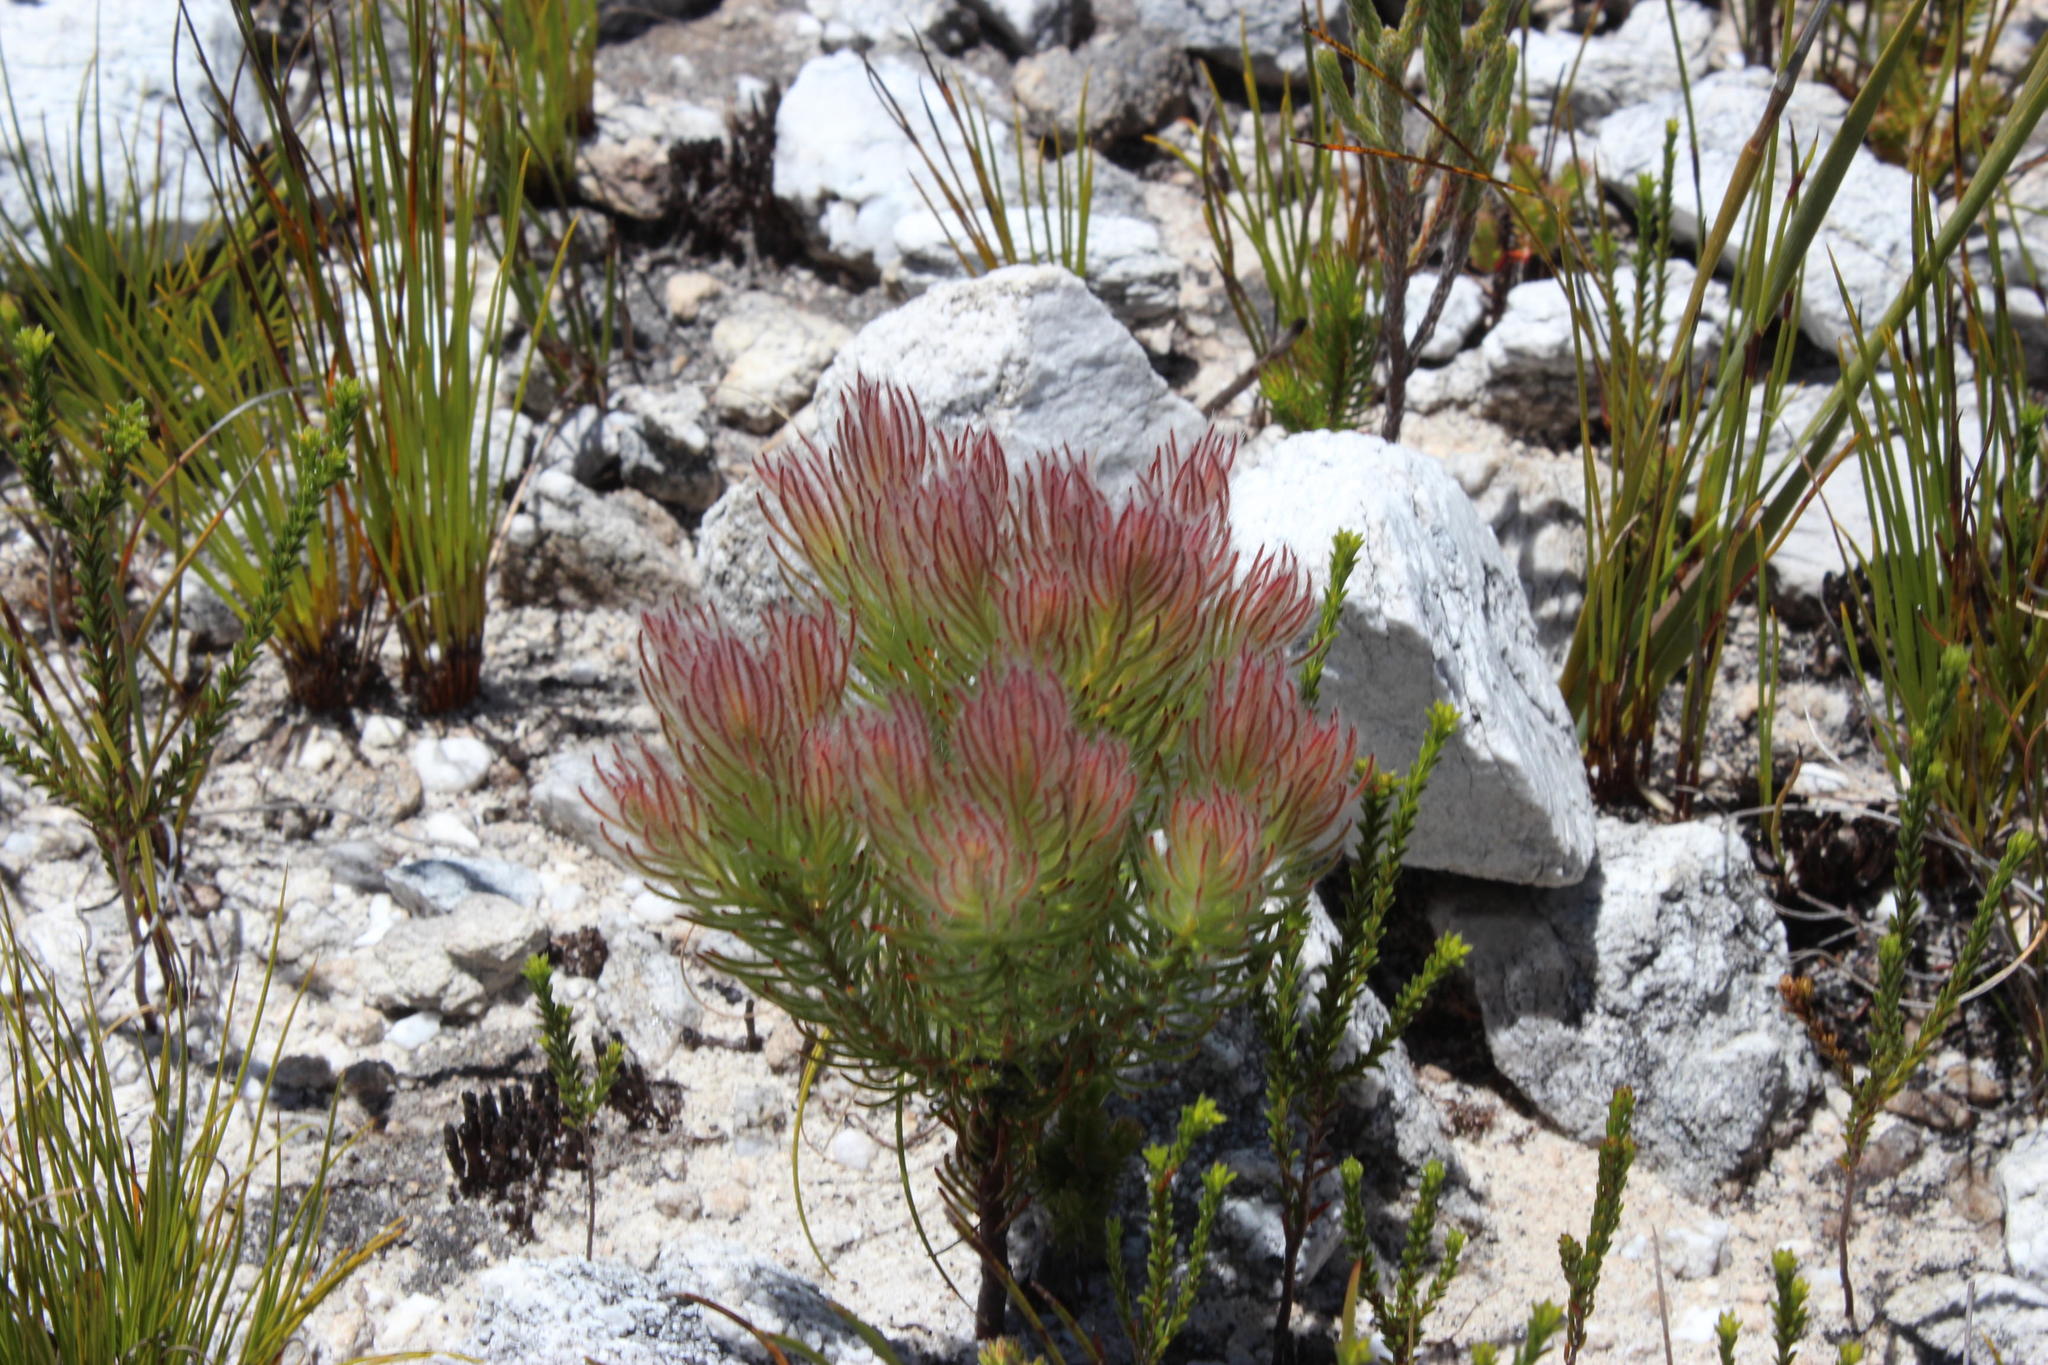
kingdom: Plantae
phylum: Tracheophyta
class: Magnoliopsida
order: Proteales
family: Proteaceae
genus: Spatalla
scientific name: Spatalla mollis
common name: Woolly spoon
